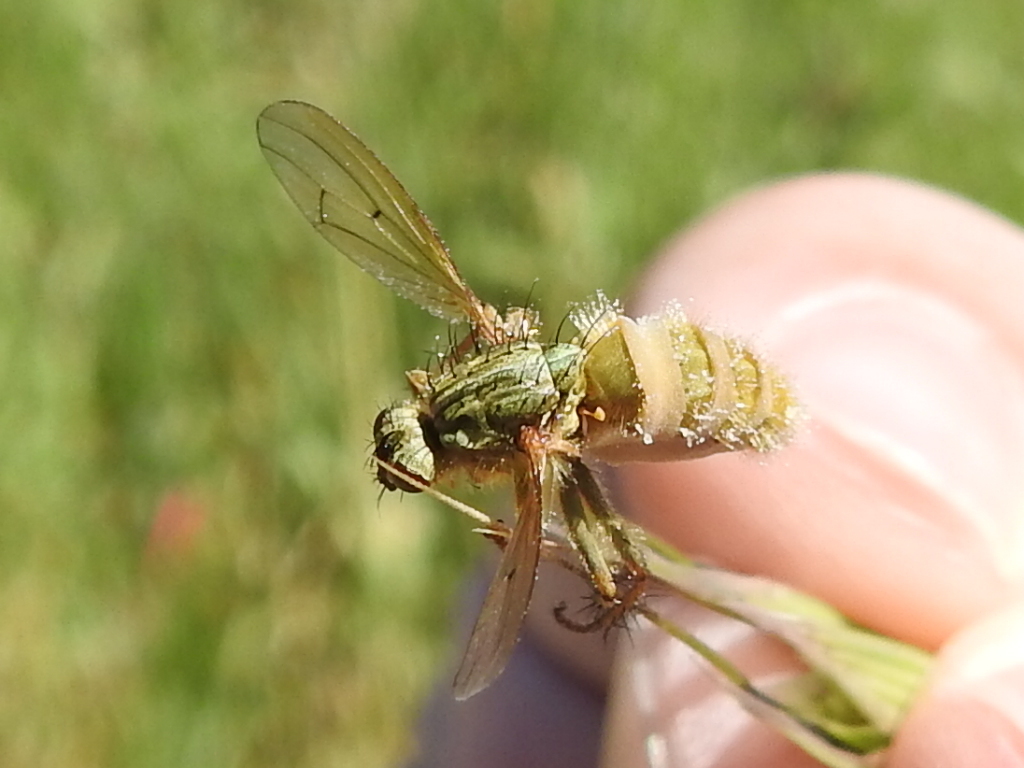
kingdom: Animalia
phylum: Arthropoda
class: Insecta
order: Diptera
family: Scathophagidae
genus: Scathophaga
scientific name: Scathophaga stercoraria
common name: Yellow dung fly
